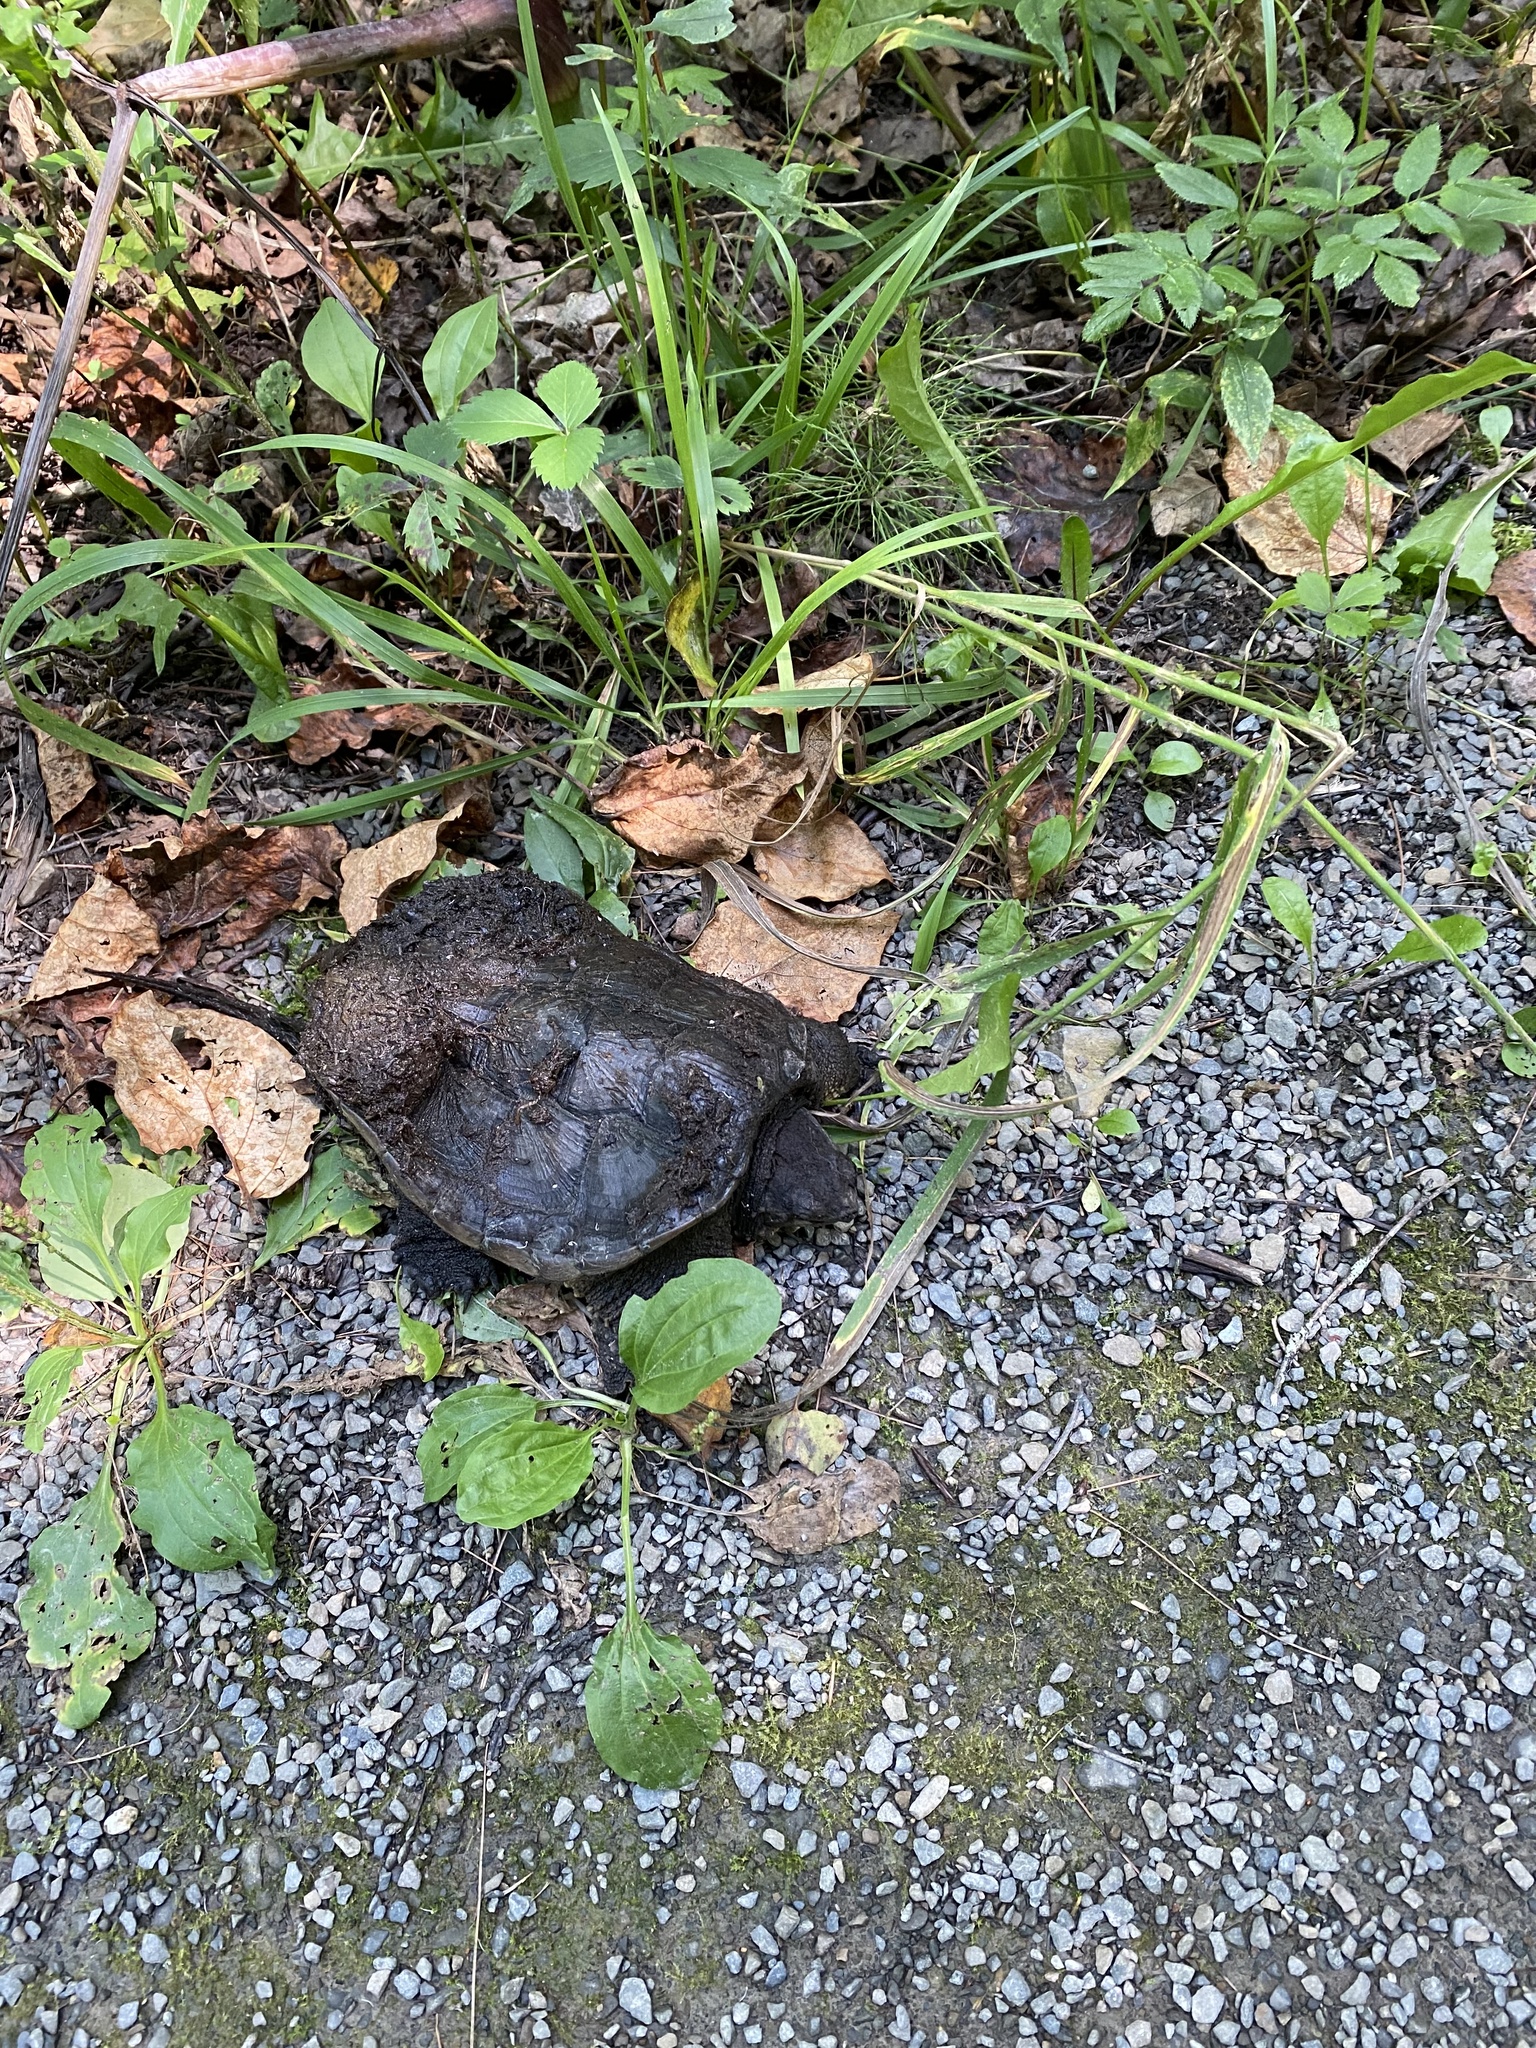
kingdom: Animalia
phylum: Chordata
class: Testudines
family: Chelydridae
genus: Chelydra
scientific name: Chelydra serpentina
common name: Common snapping turtle
